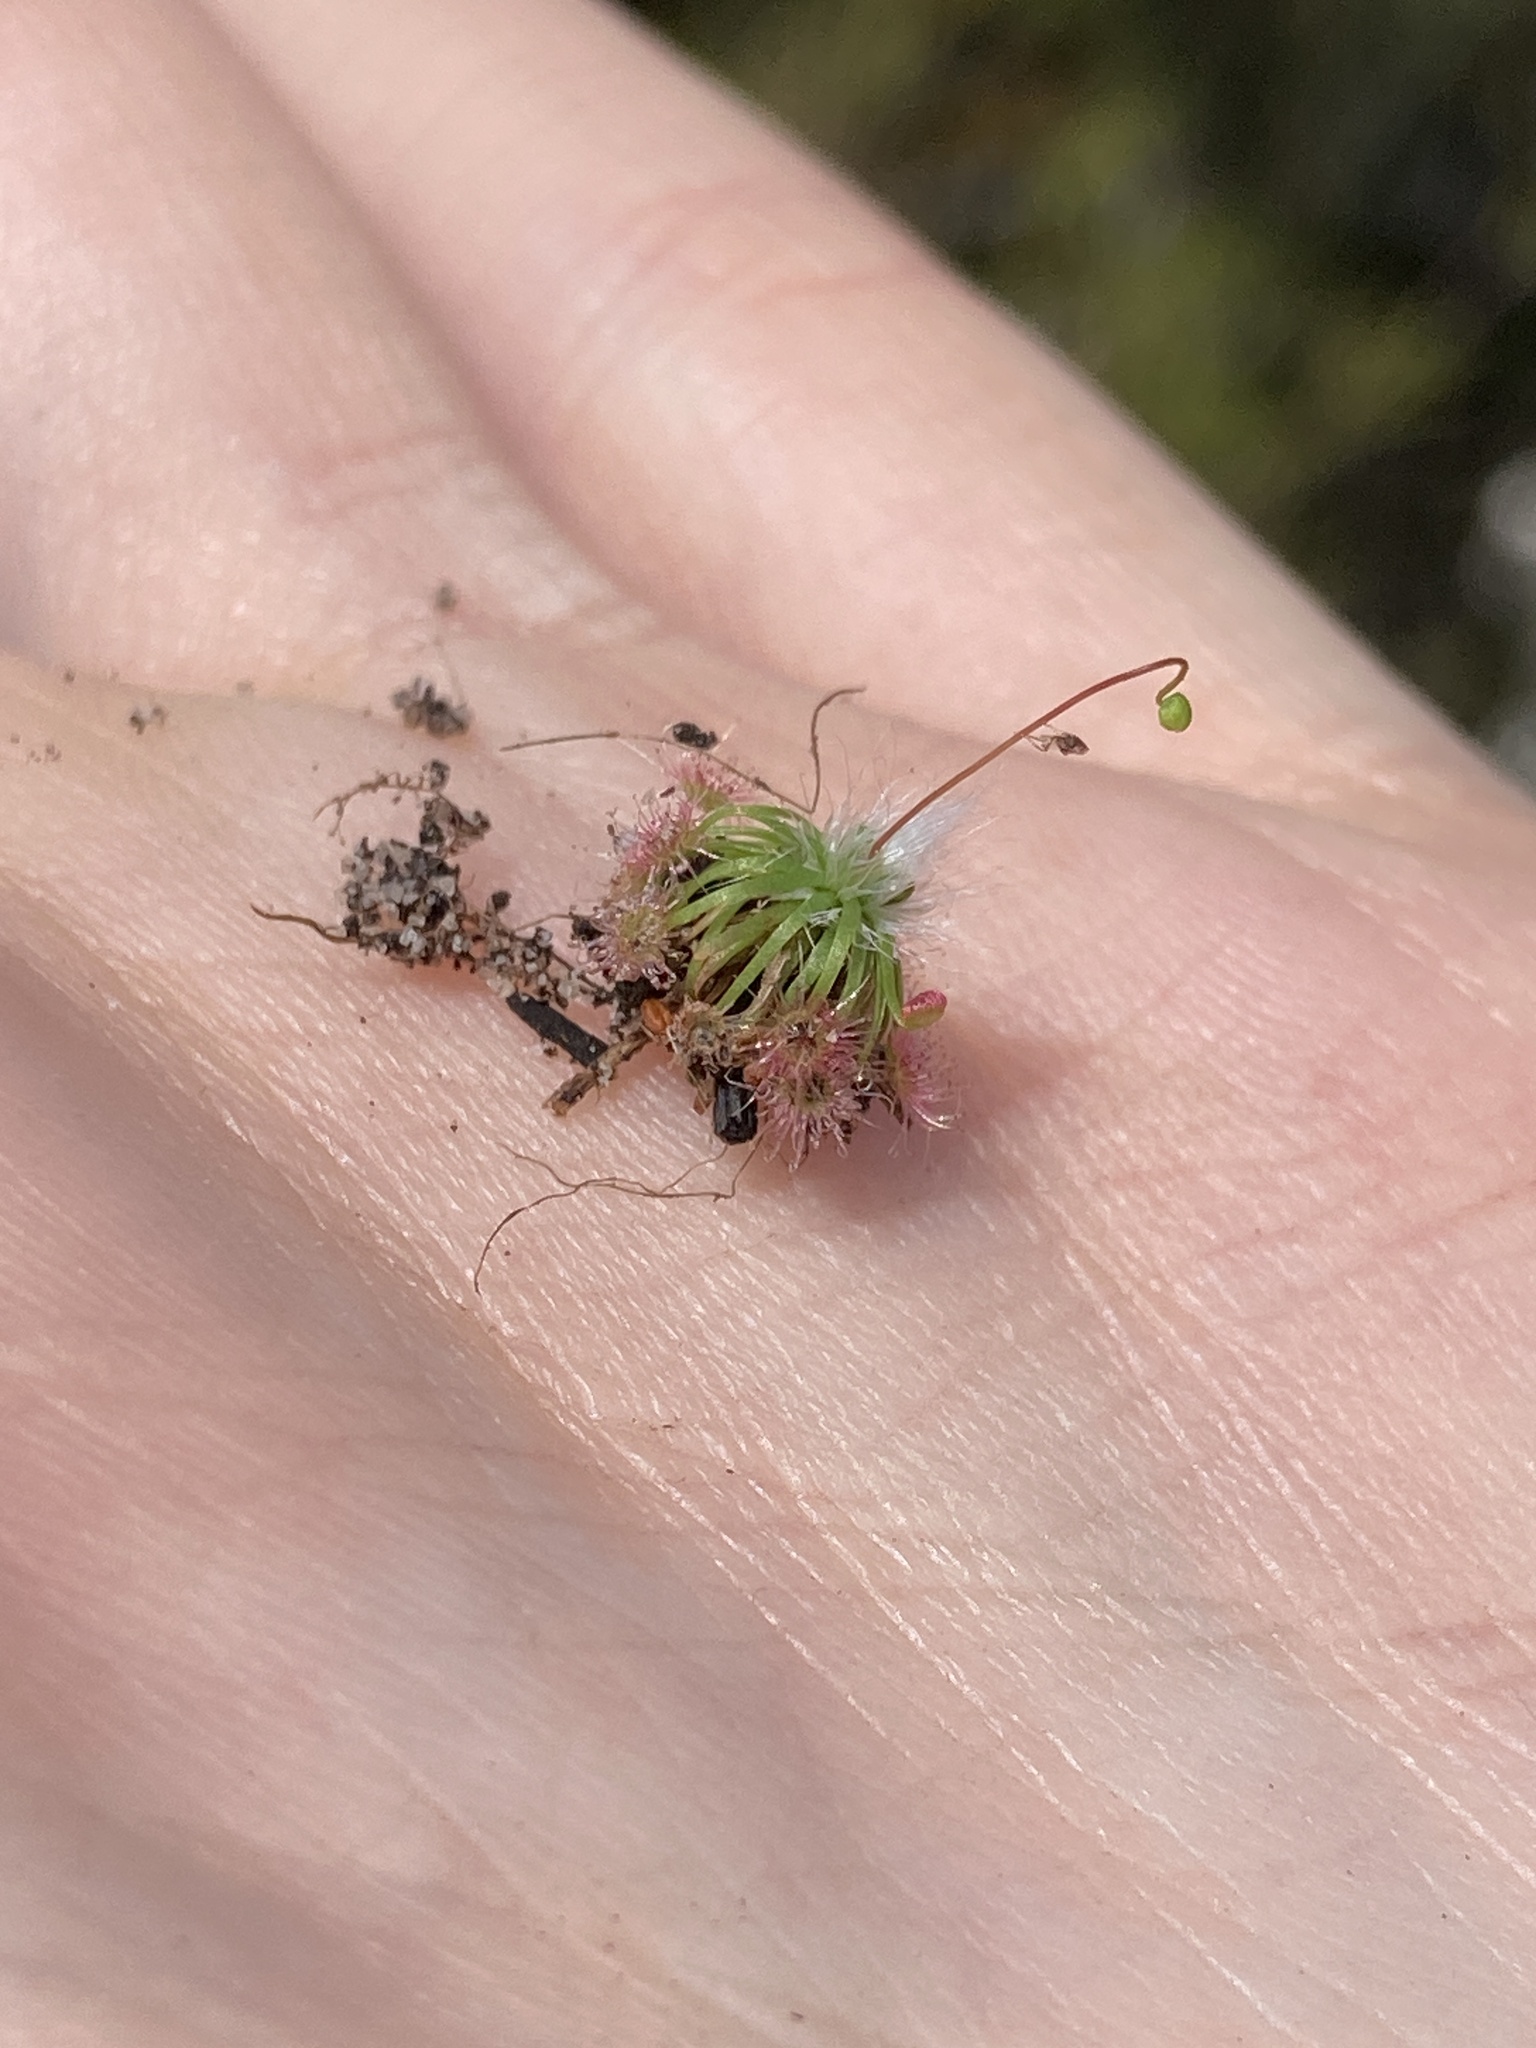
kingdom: Plantae
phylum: Tracheophyta
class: Magnoliopsida
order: Caryophyllales
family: Droseraceae
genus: Drosera
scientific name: Drosera pygmaea
